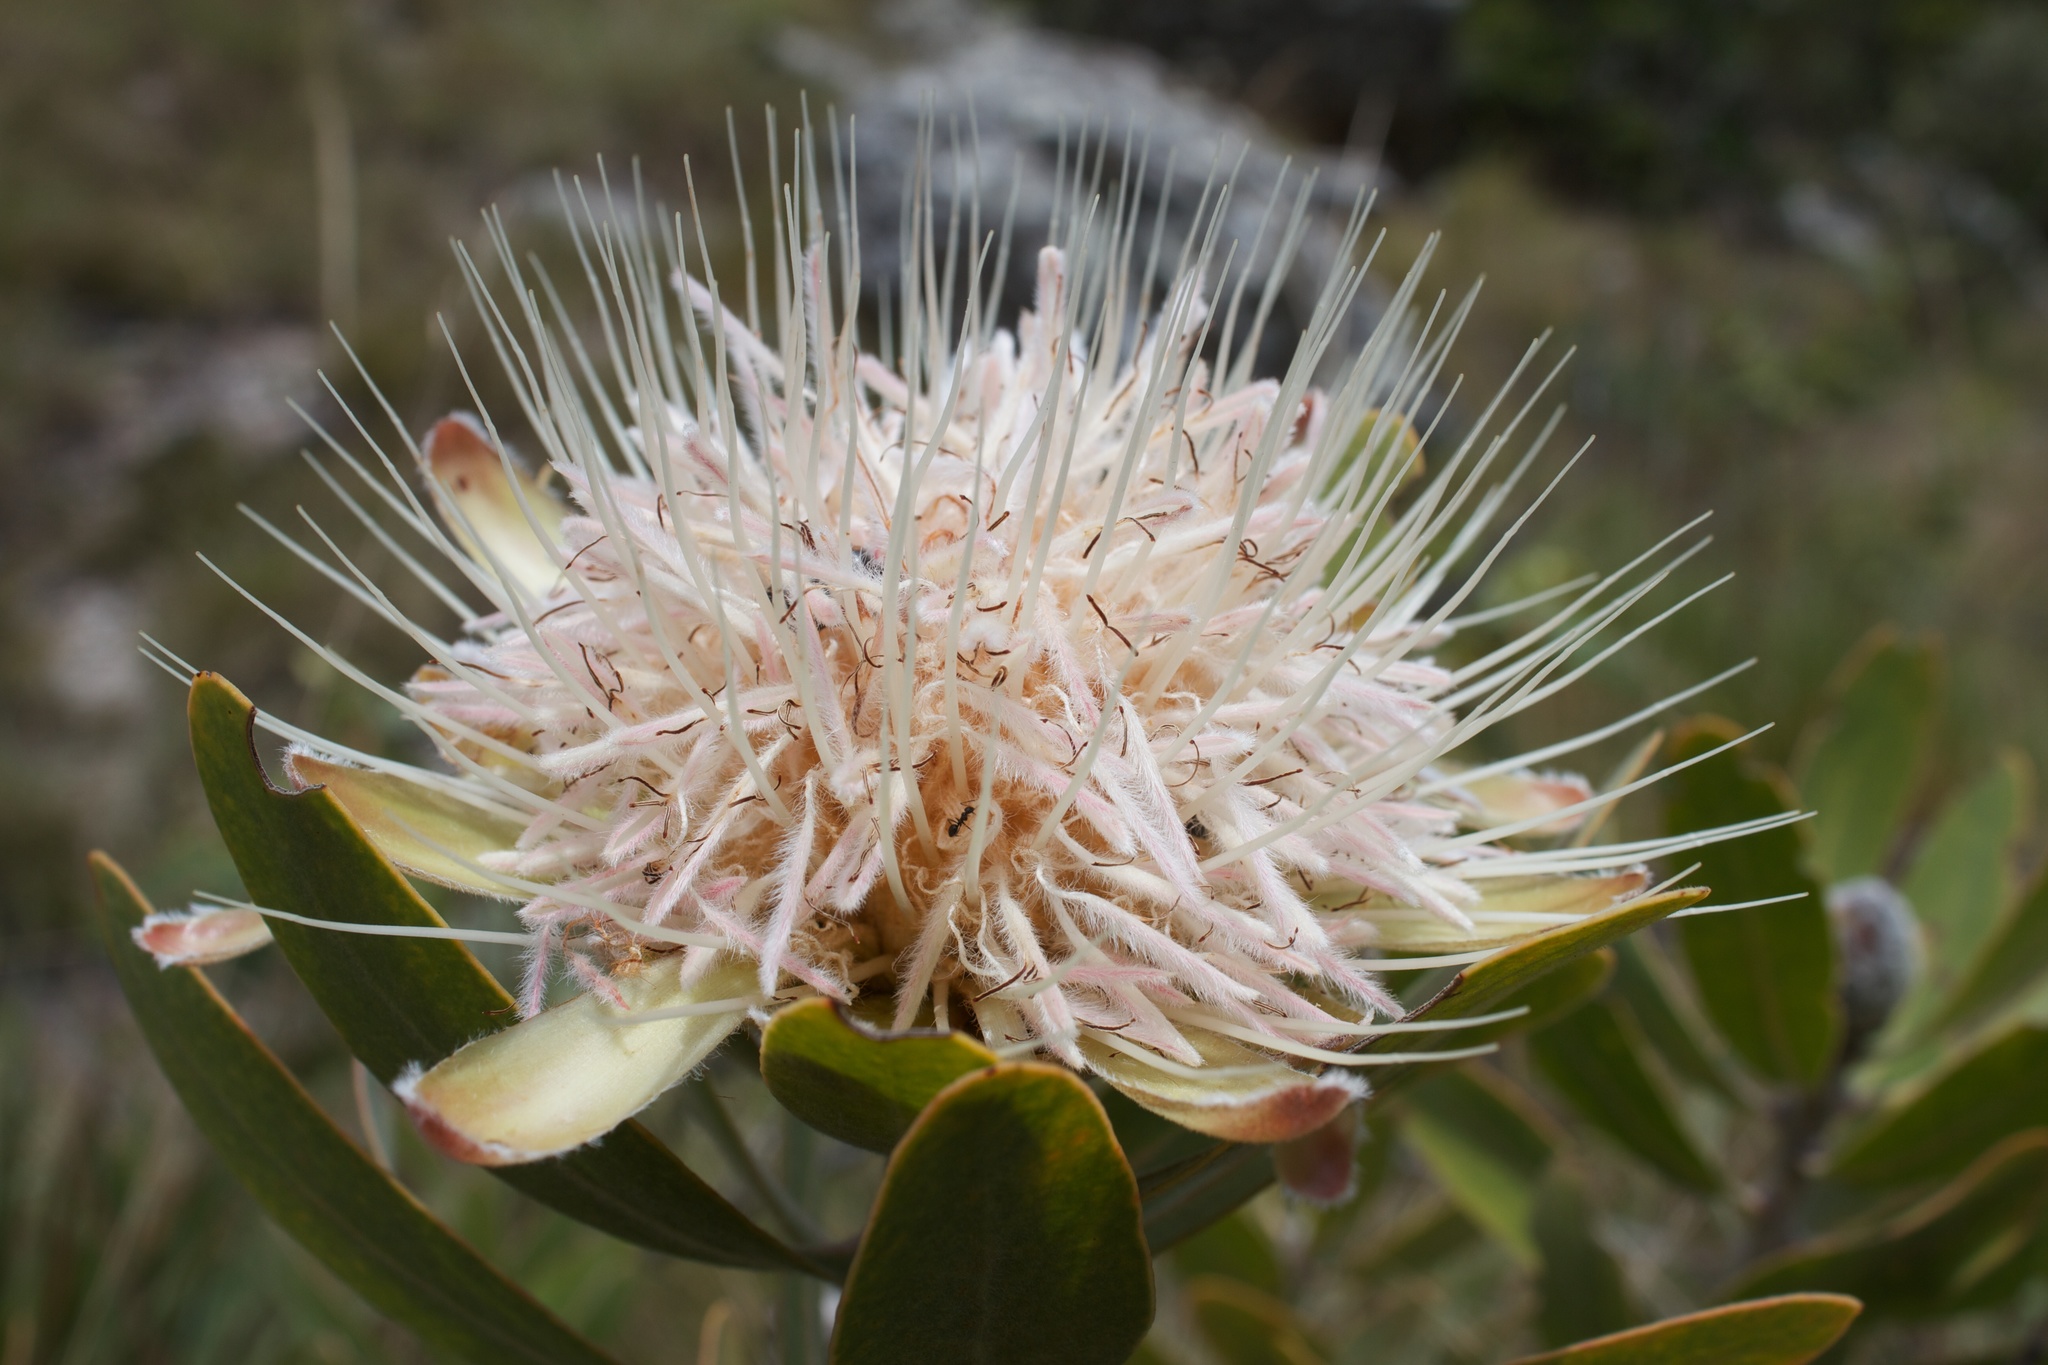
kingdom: Plantae
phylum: Tracheophyta
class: Magnoliopsida
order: Proteales
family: Proteaceae
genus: Protea
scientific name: Protea gaguedi
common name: African protea
